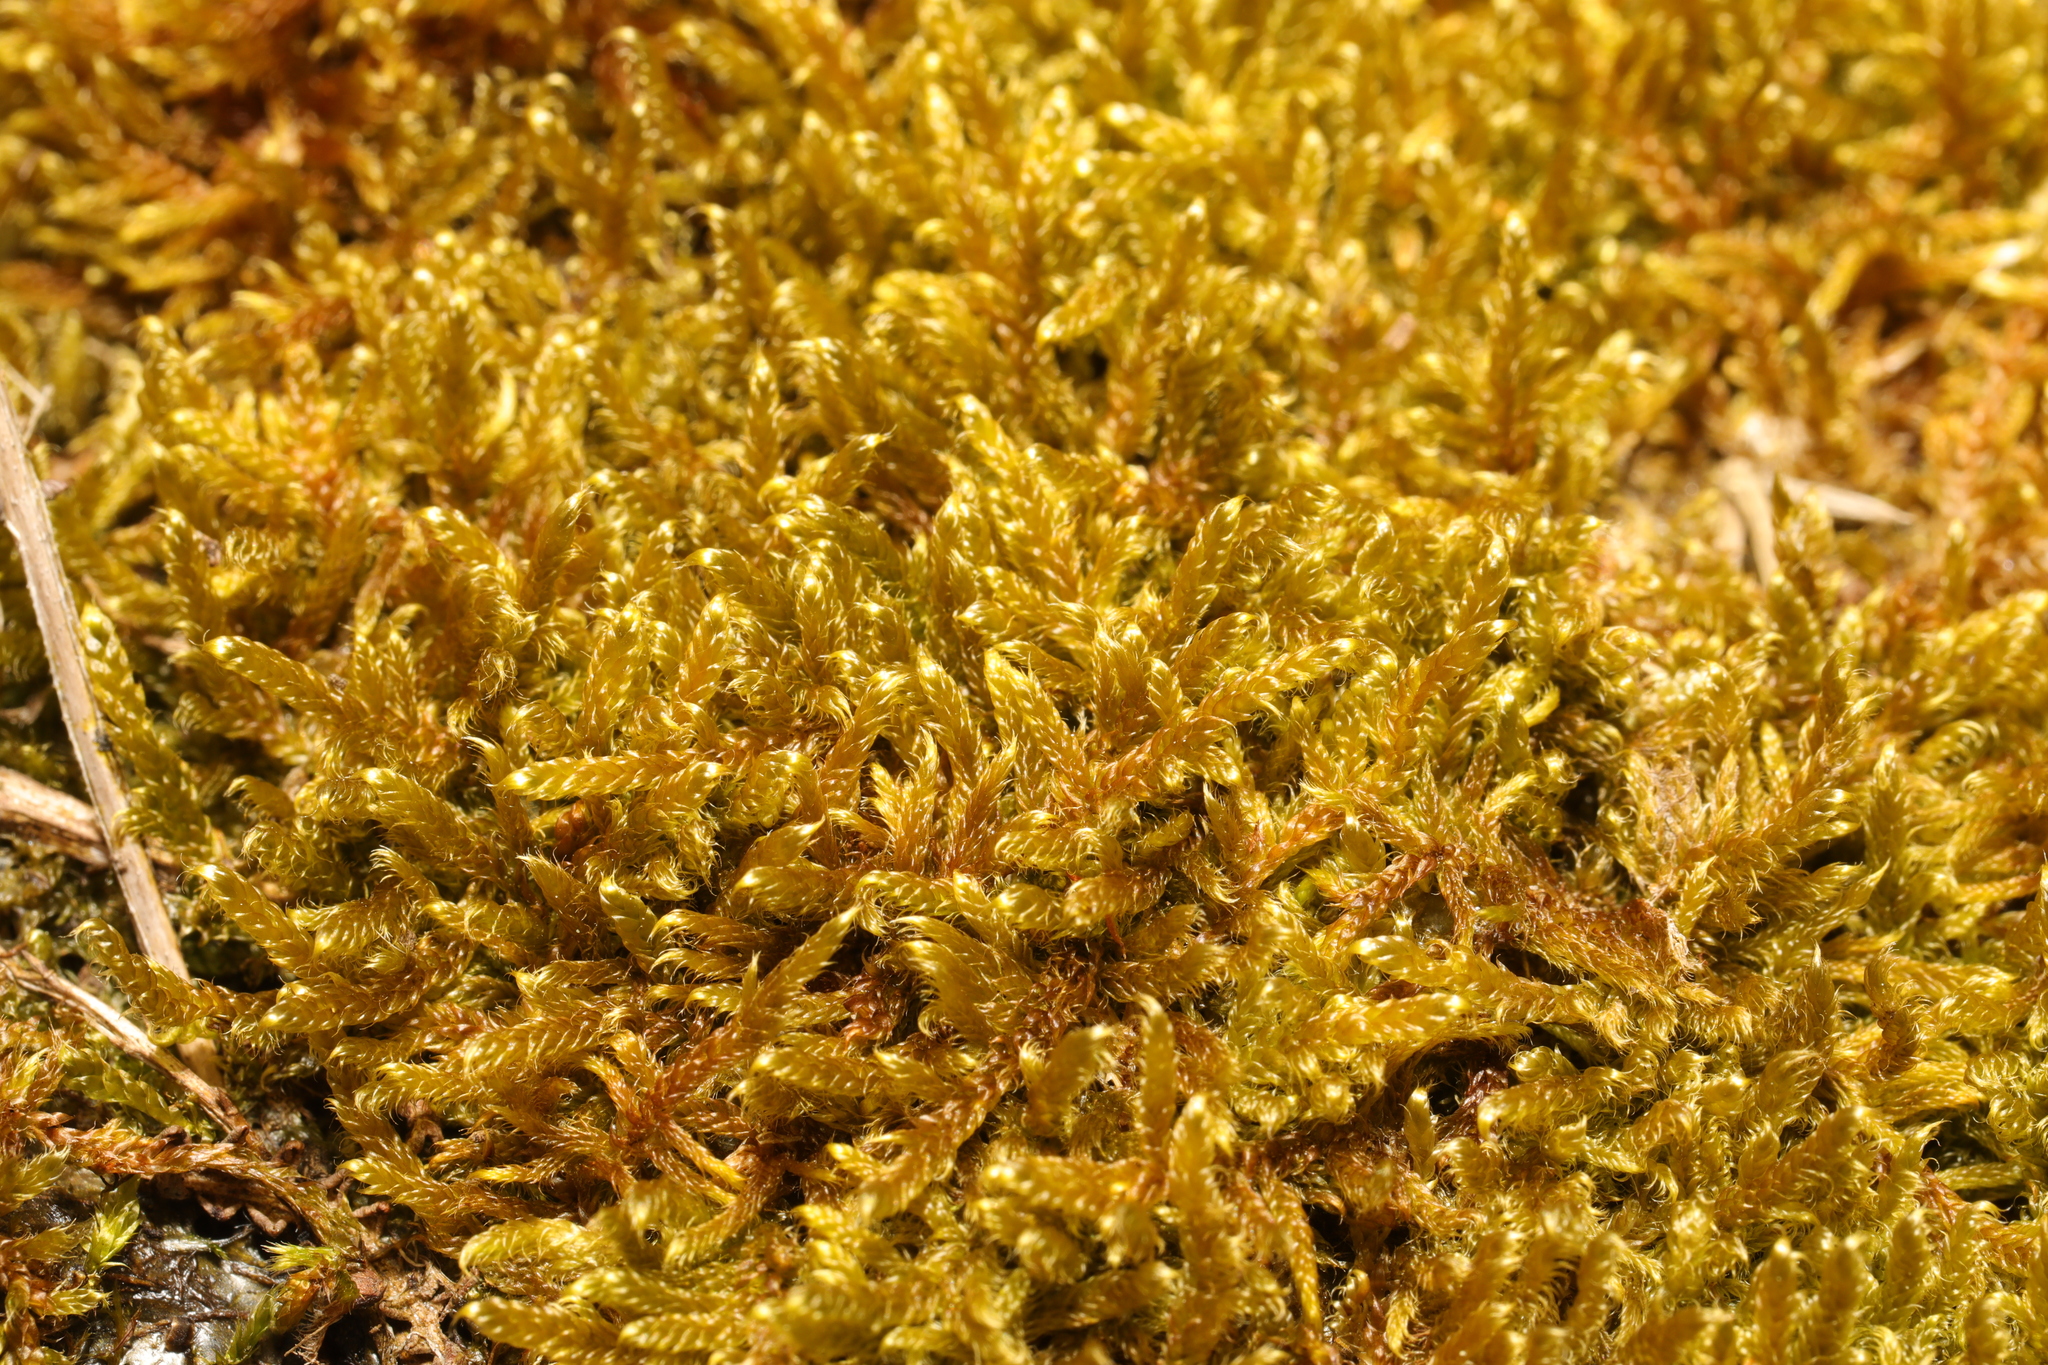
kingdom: Plantae
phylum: Bryophyta
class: Bryopsida
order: Hypnales
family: Hypnaceae
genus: Hypnum
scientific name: Hypnum cupressiforme
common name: Cypress-leaved plait-moss
